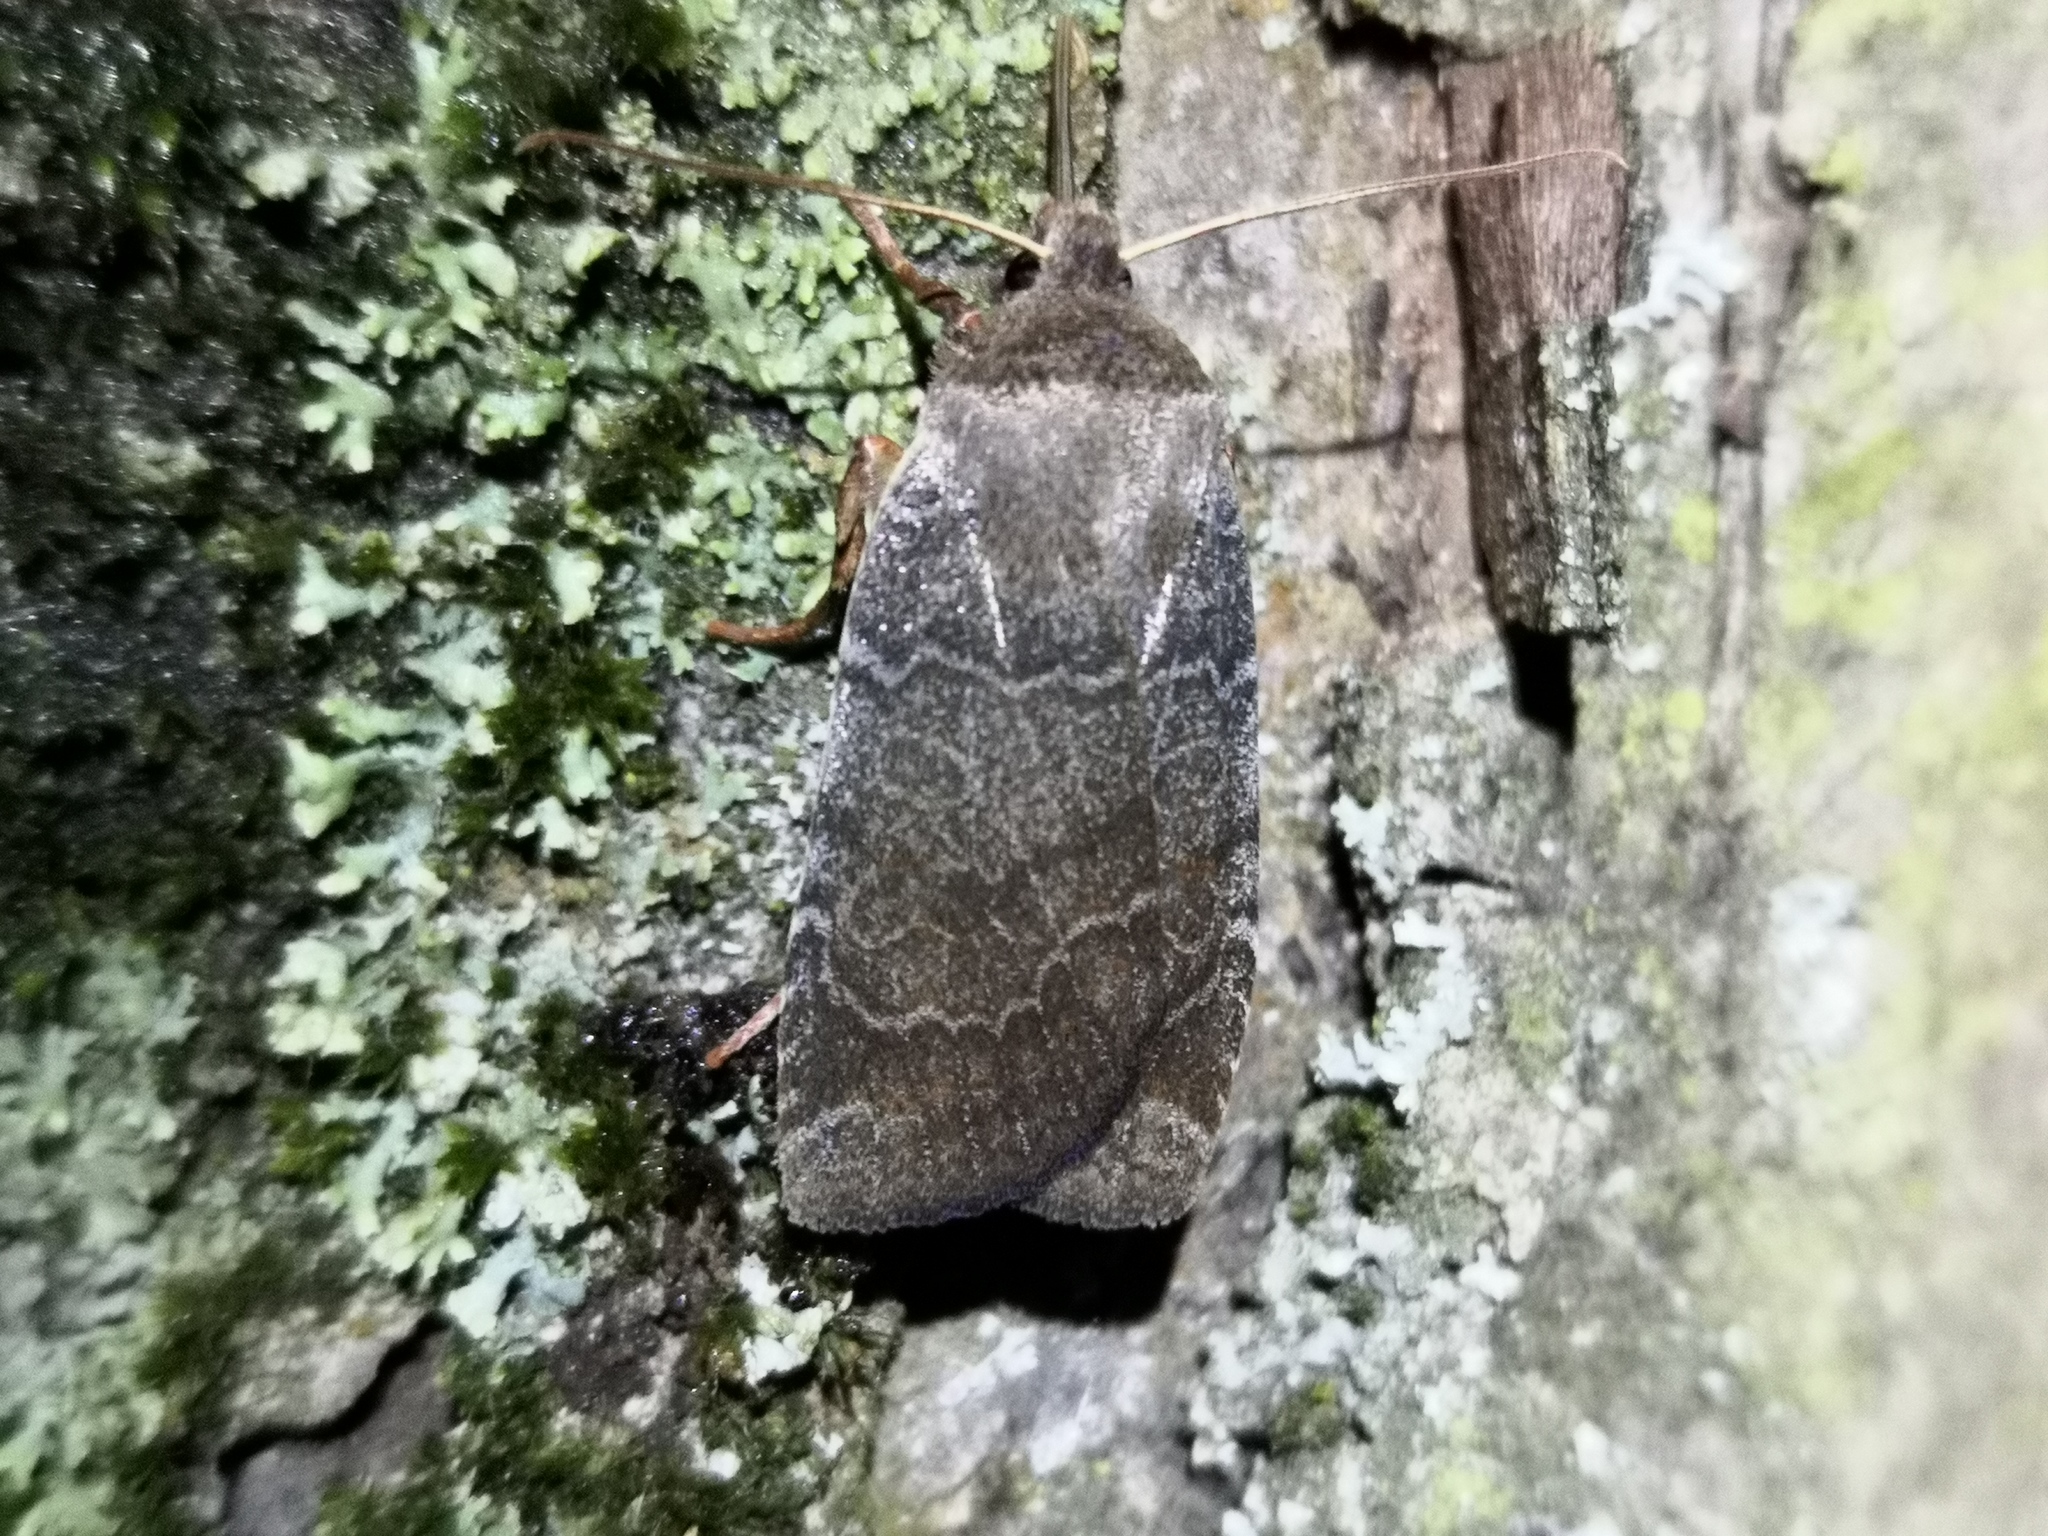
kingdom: Animalia
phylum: Arthropoda
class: Insecta
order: Lepidoptera
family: Noctuidae
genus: Conistra
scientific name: Conistra vaccinii
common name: Chestnut
